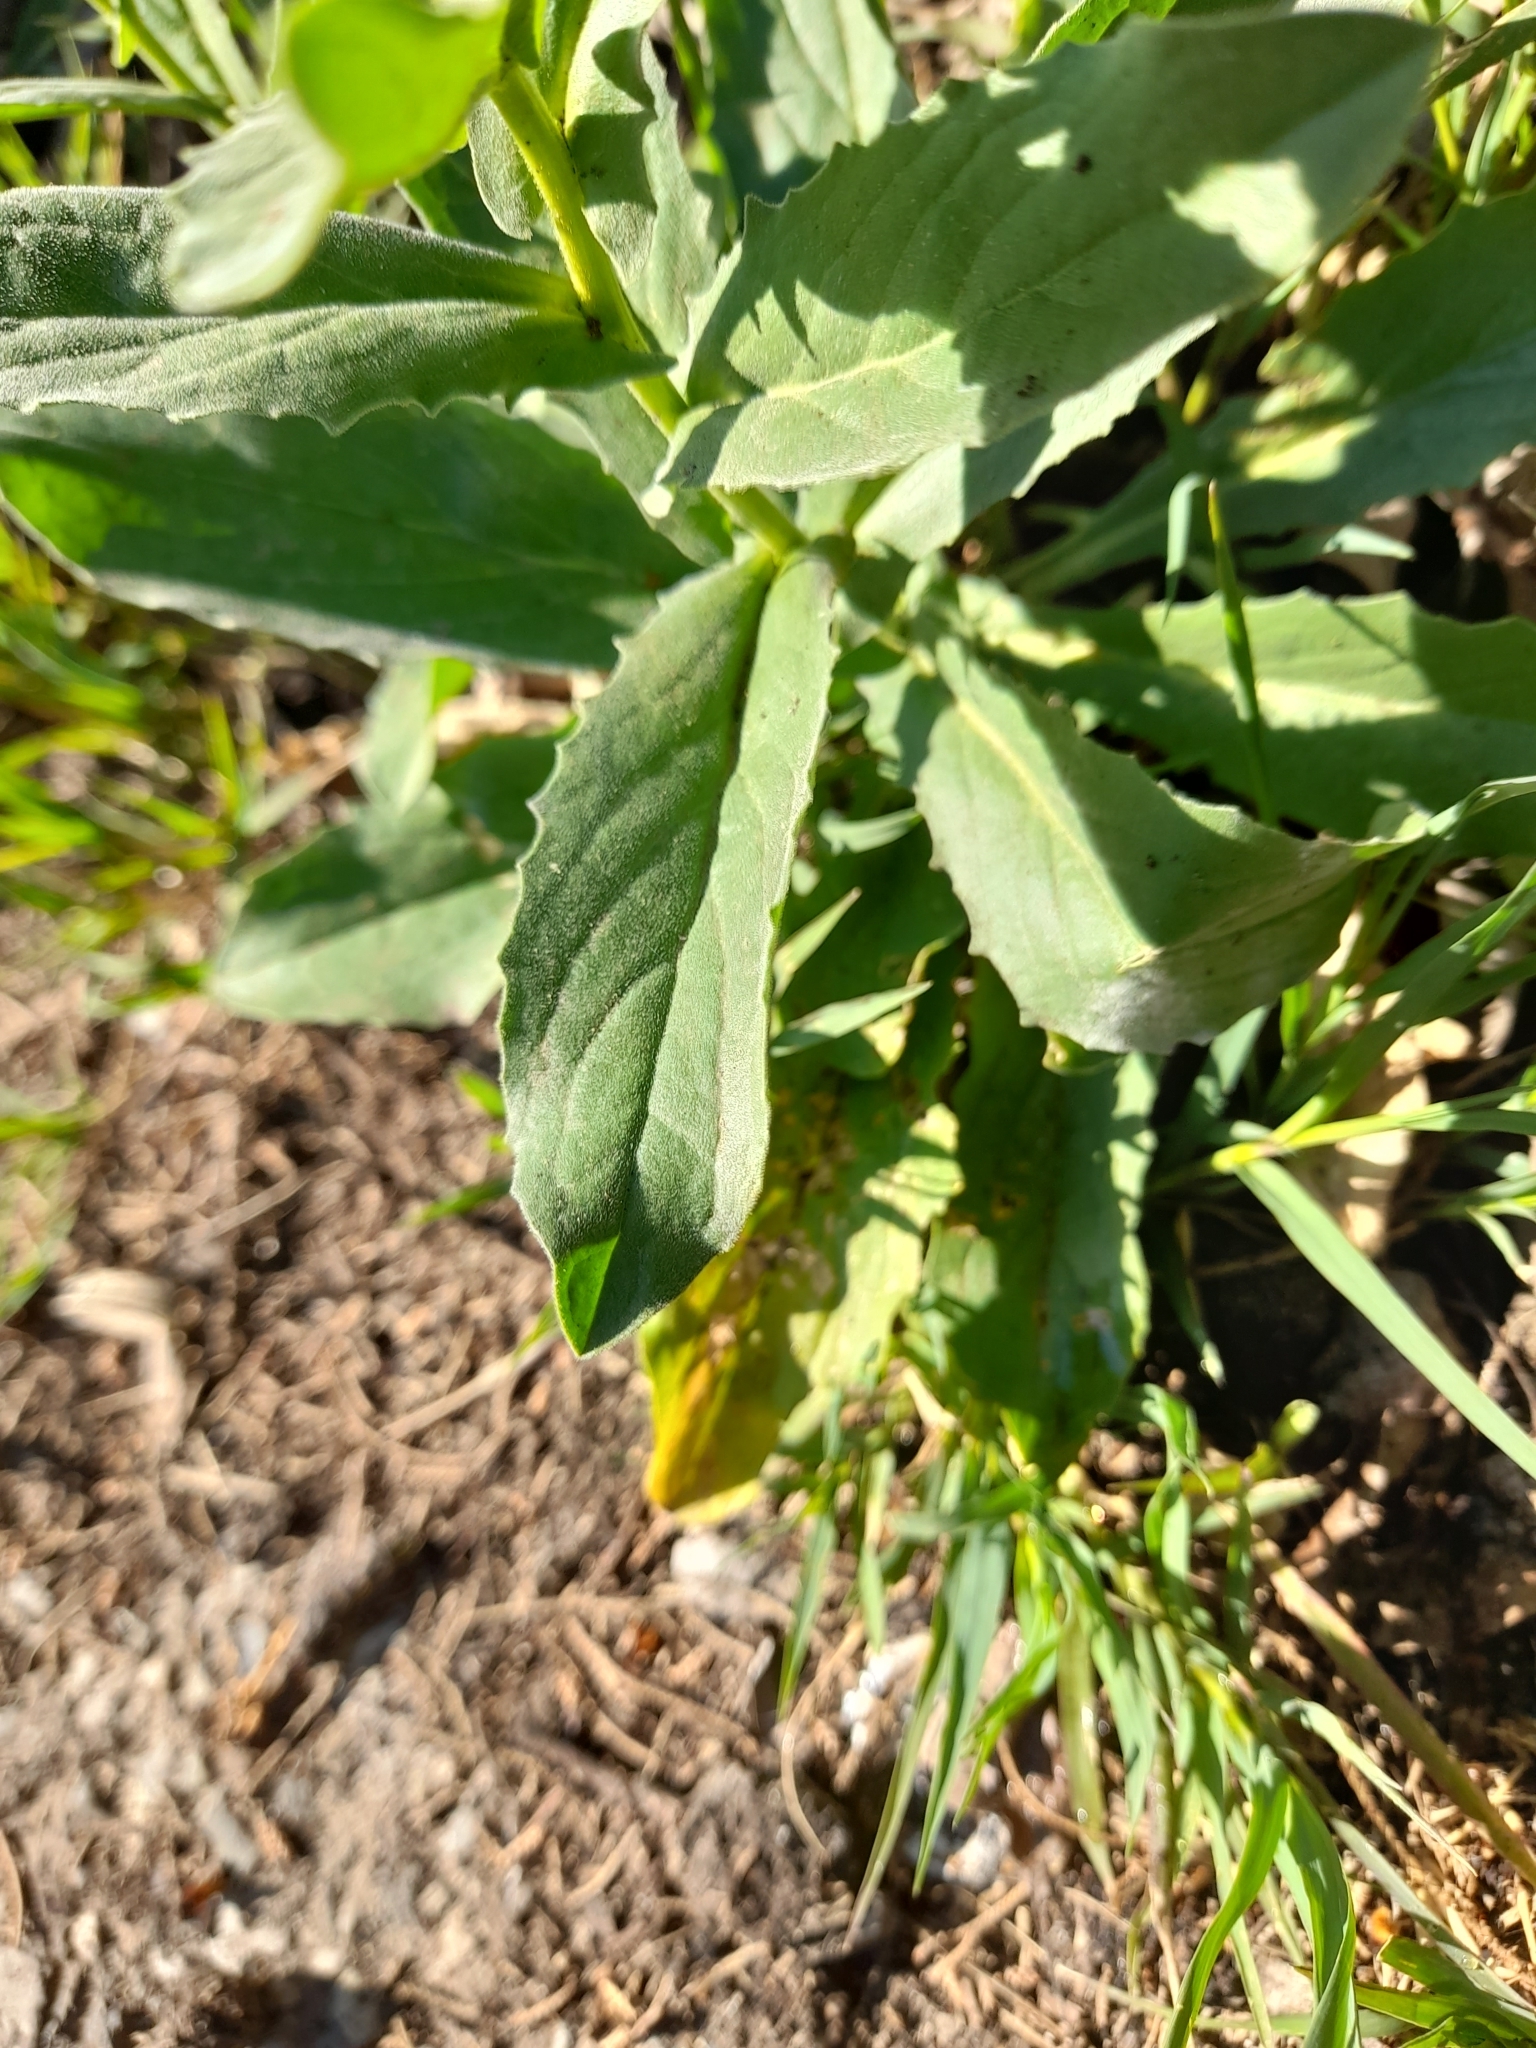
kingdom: Plantae
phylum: Tracheophyta
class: Magnoliopsida
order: Brassicales
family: Brassicaceae
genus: Lepidium
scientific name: Lepidium draba
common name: Hoary cress
